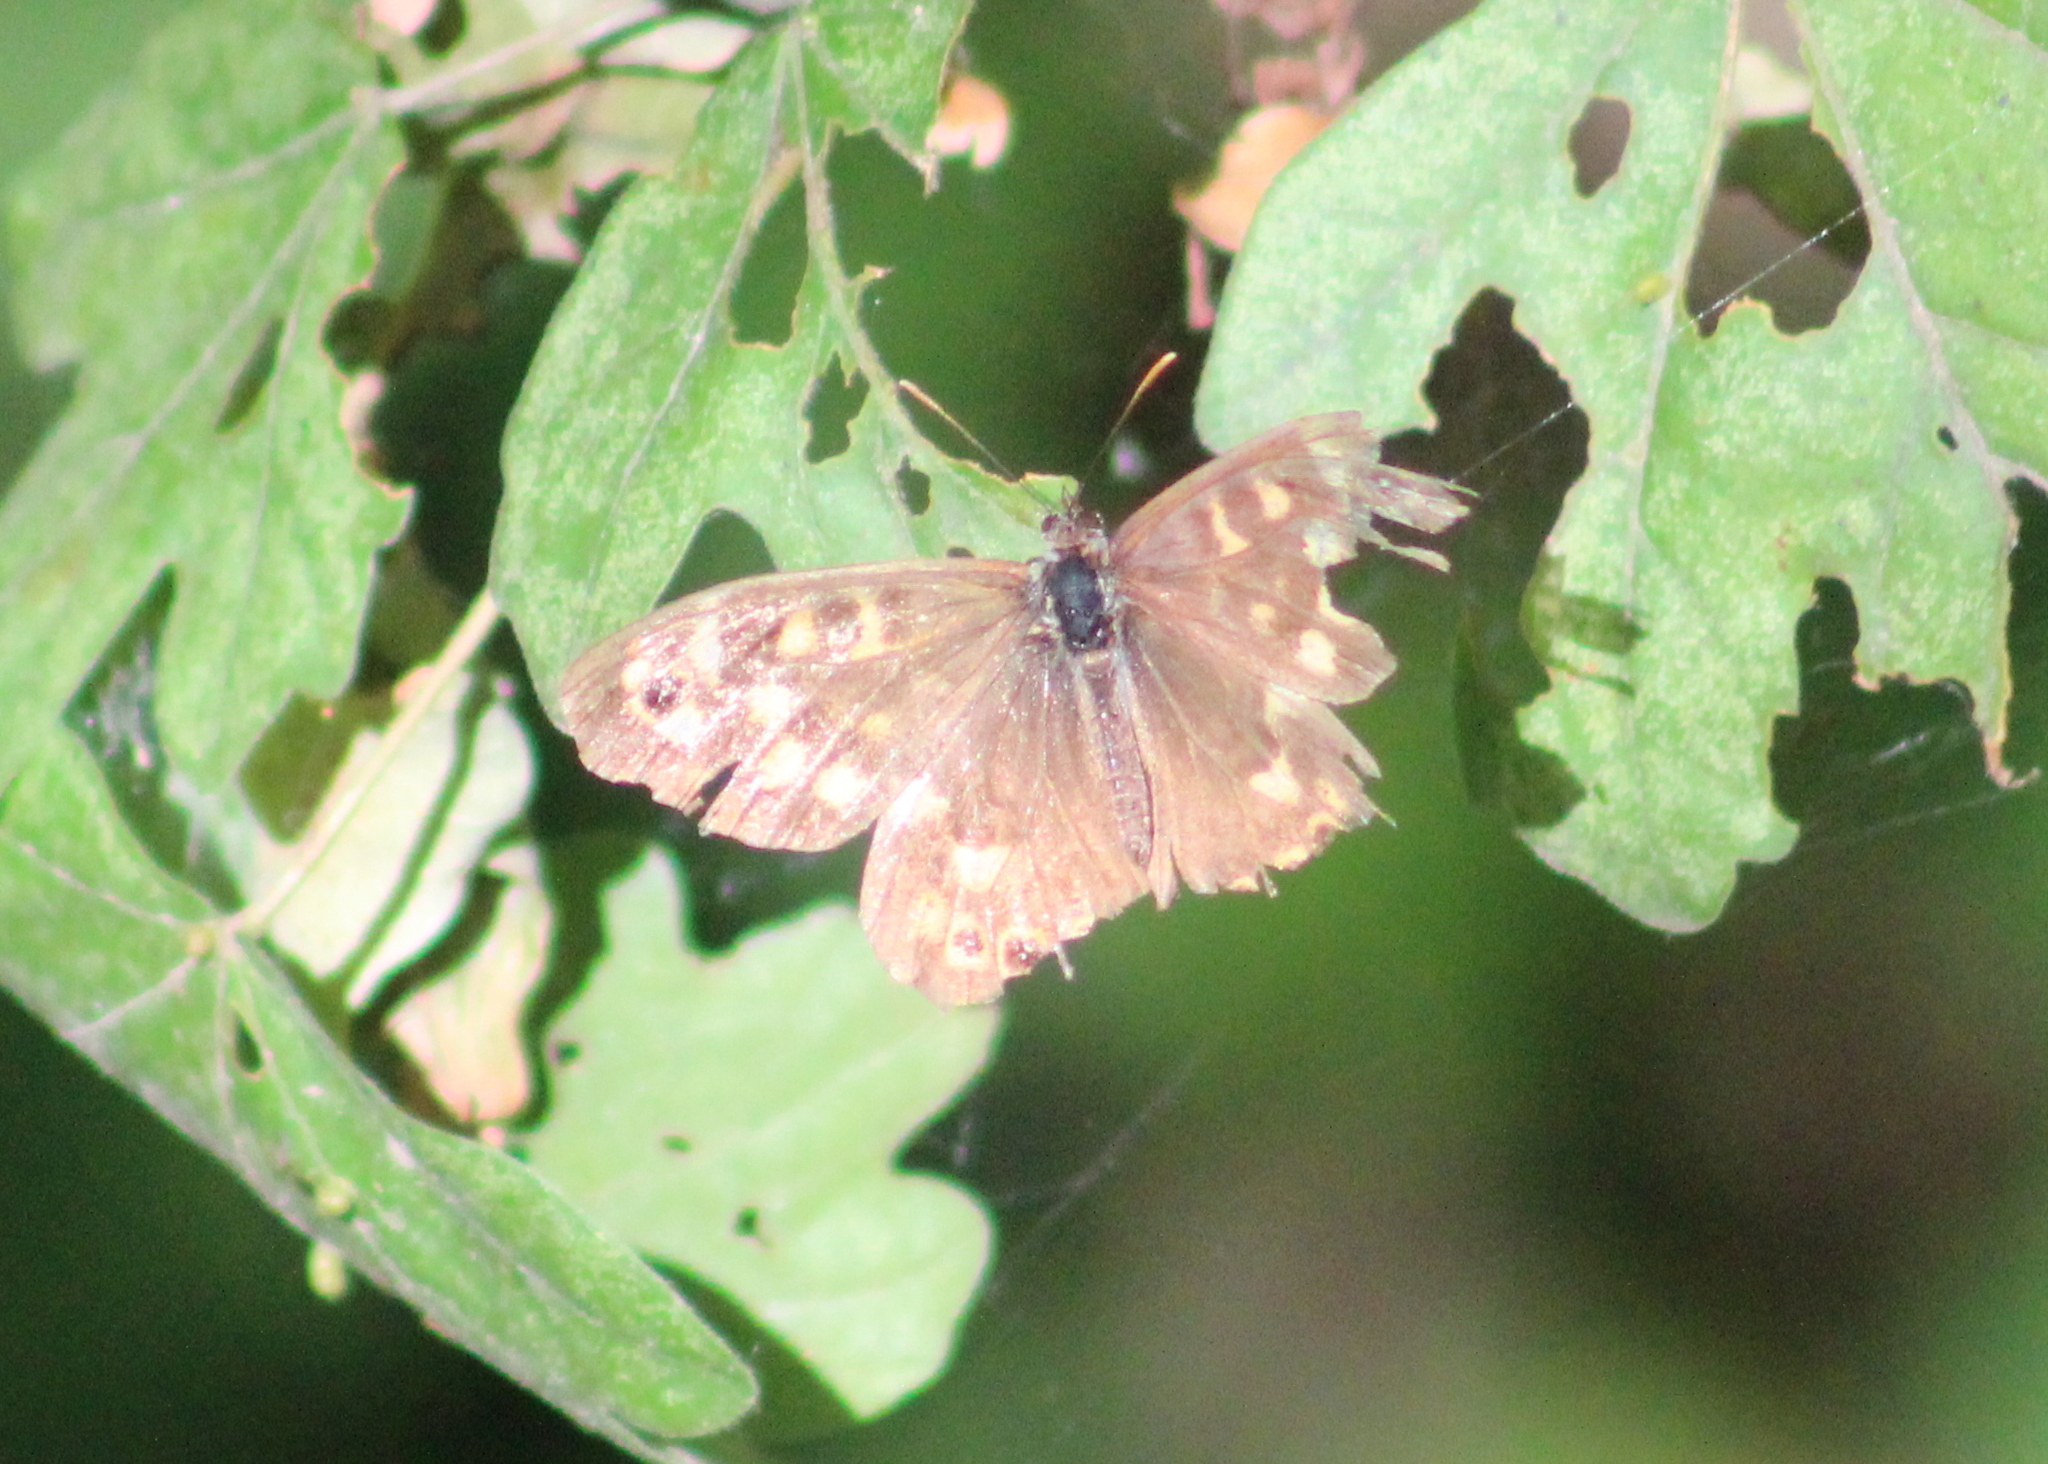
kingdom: Animalia
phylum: Arthropoda
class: Insecta
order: Lepidoptera
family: Nymphalidae
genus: Pararge
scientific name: Pararge aegeria
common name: Speckled wood
